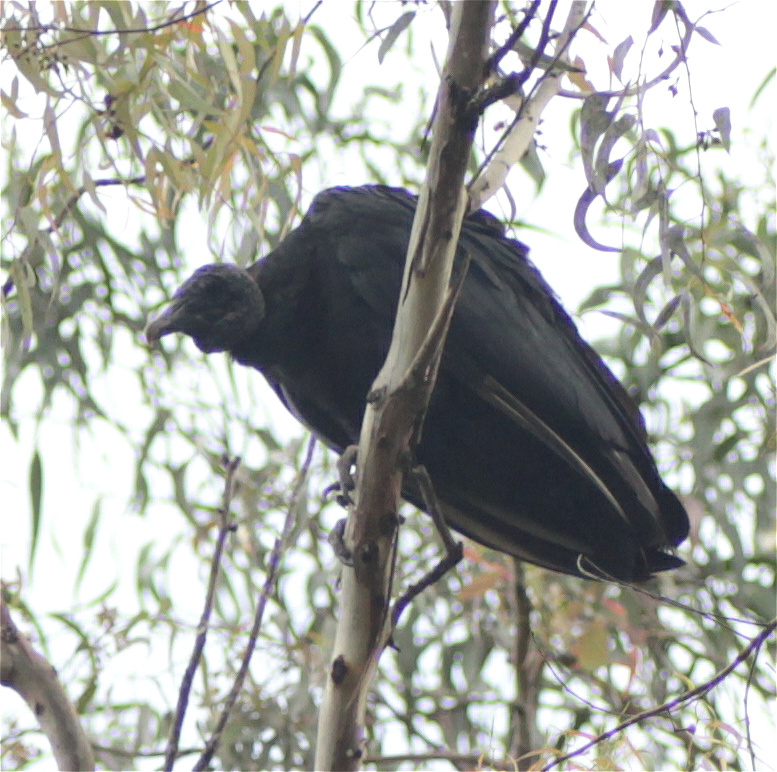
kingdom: Animalia
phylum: Chordata
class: Aves
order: Accipitriformes
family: Cathartidae
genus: Coragyps
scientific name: Coragyps atratus
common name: Black vulture
